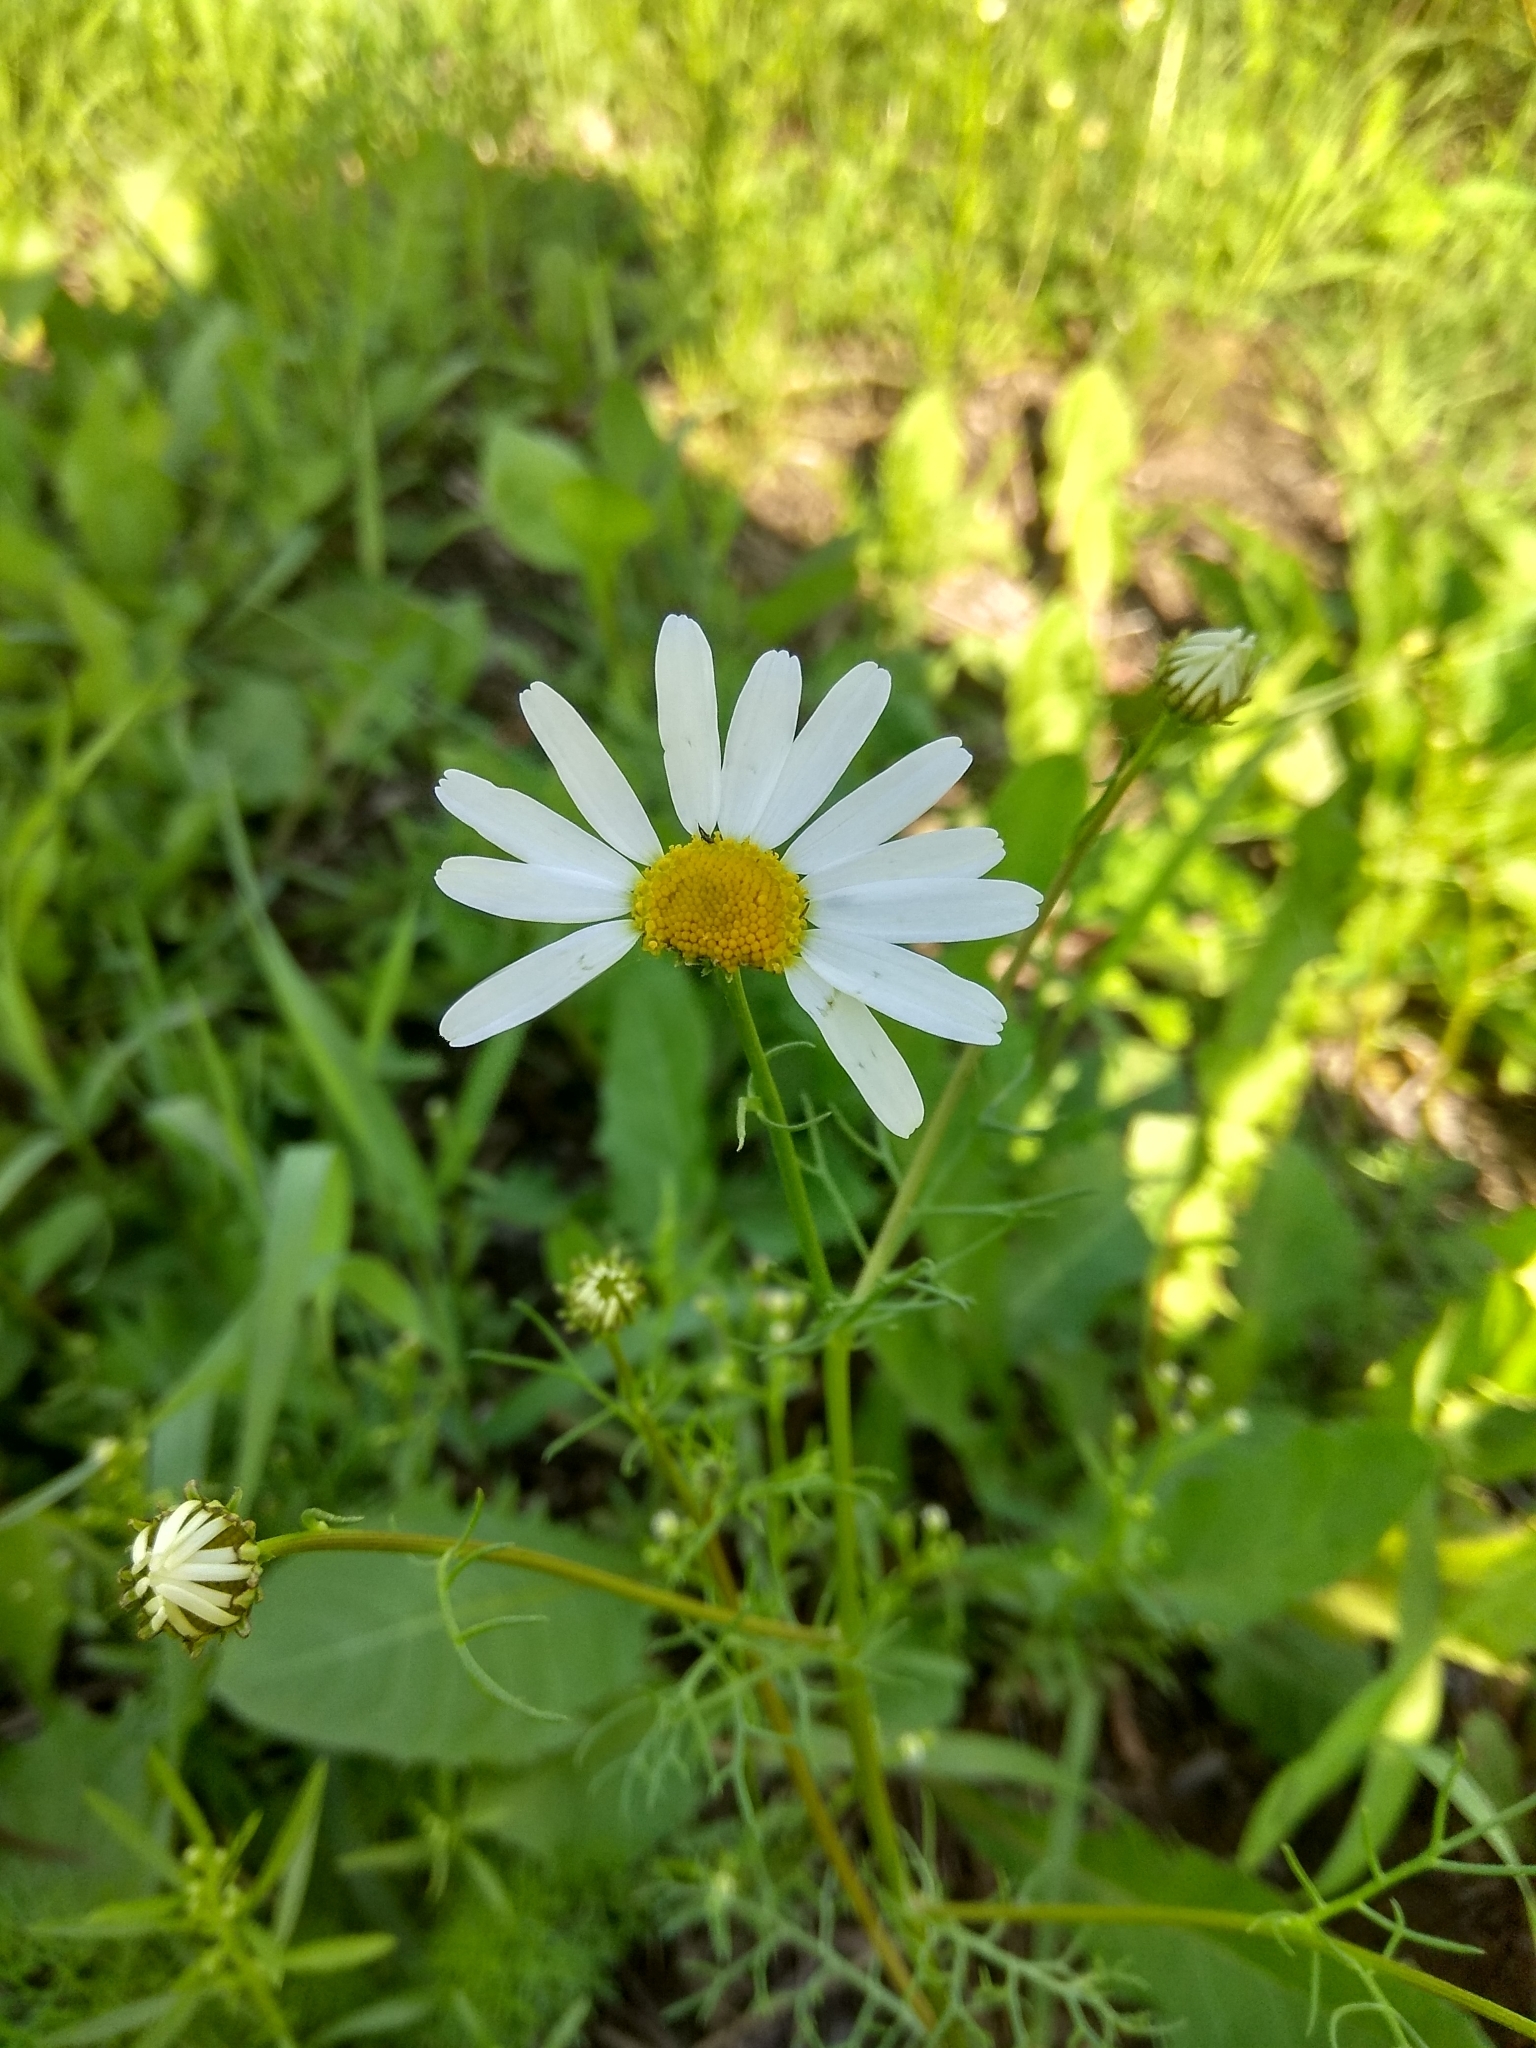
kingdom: Plantae
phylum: Tracheophyta
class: Magnoliopsida
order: Asterales
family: Asteraceae
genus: Tripleurospermum
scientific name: Tripleurospermum inodorum
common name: Scentless mayweed
